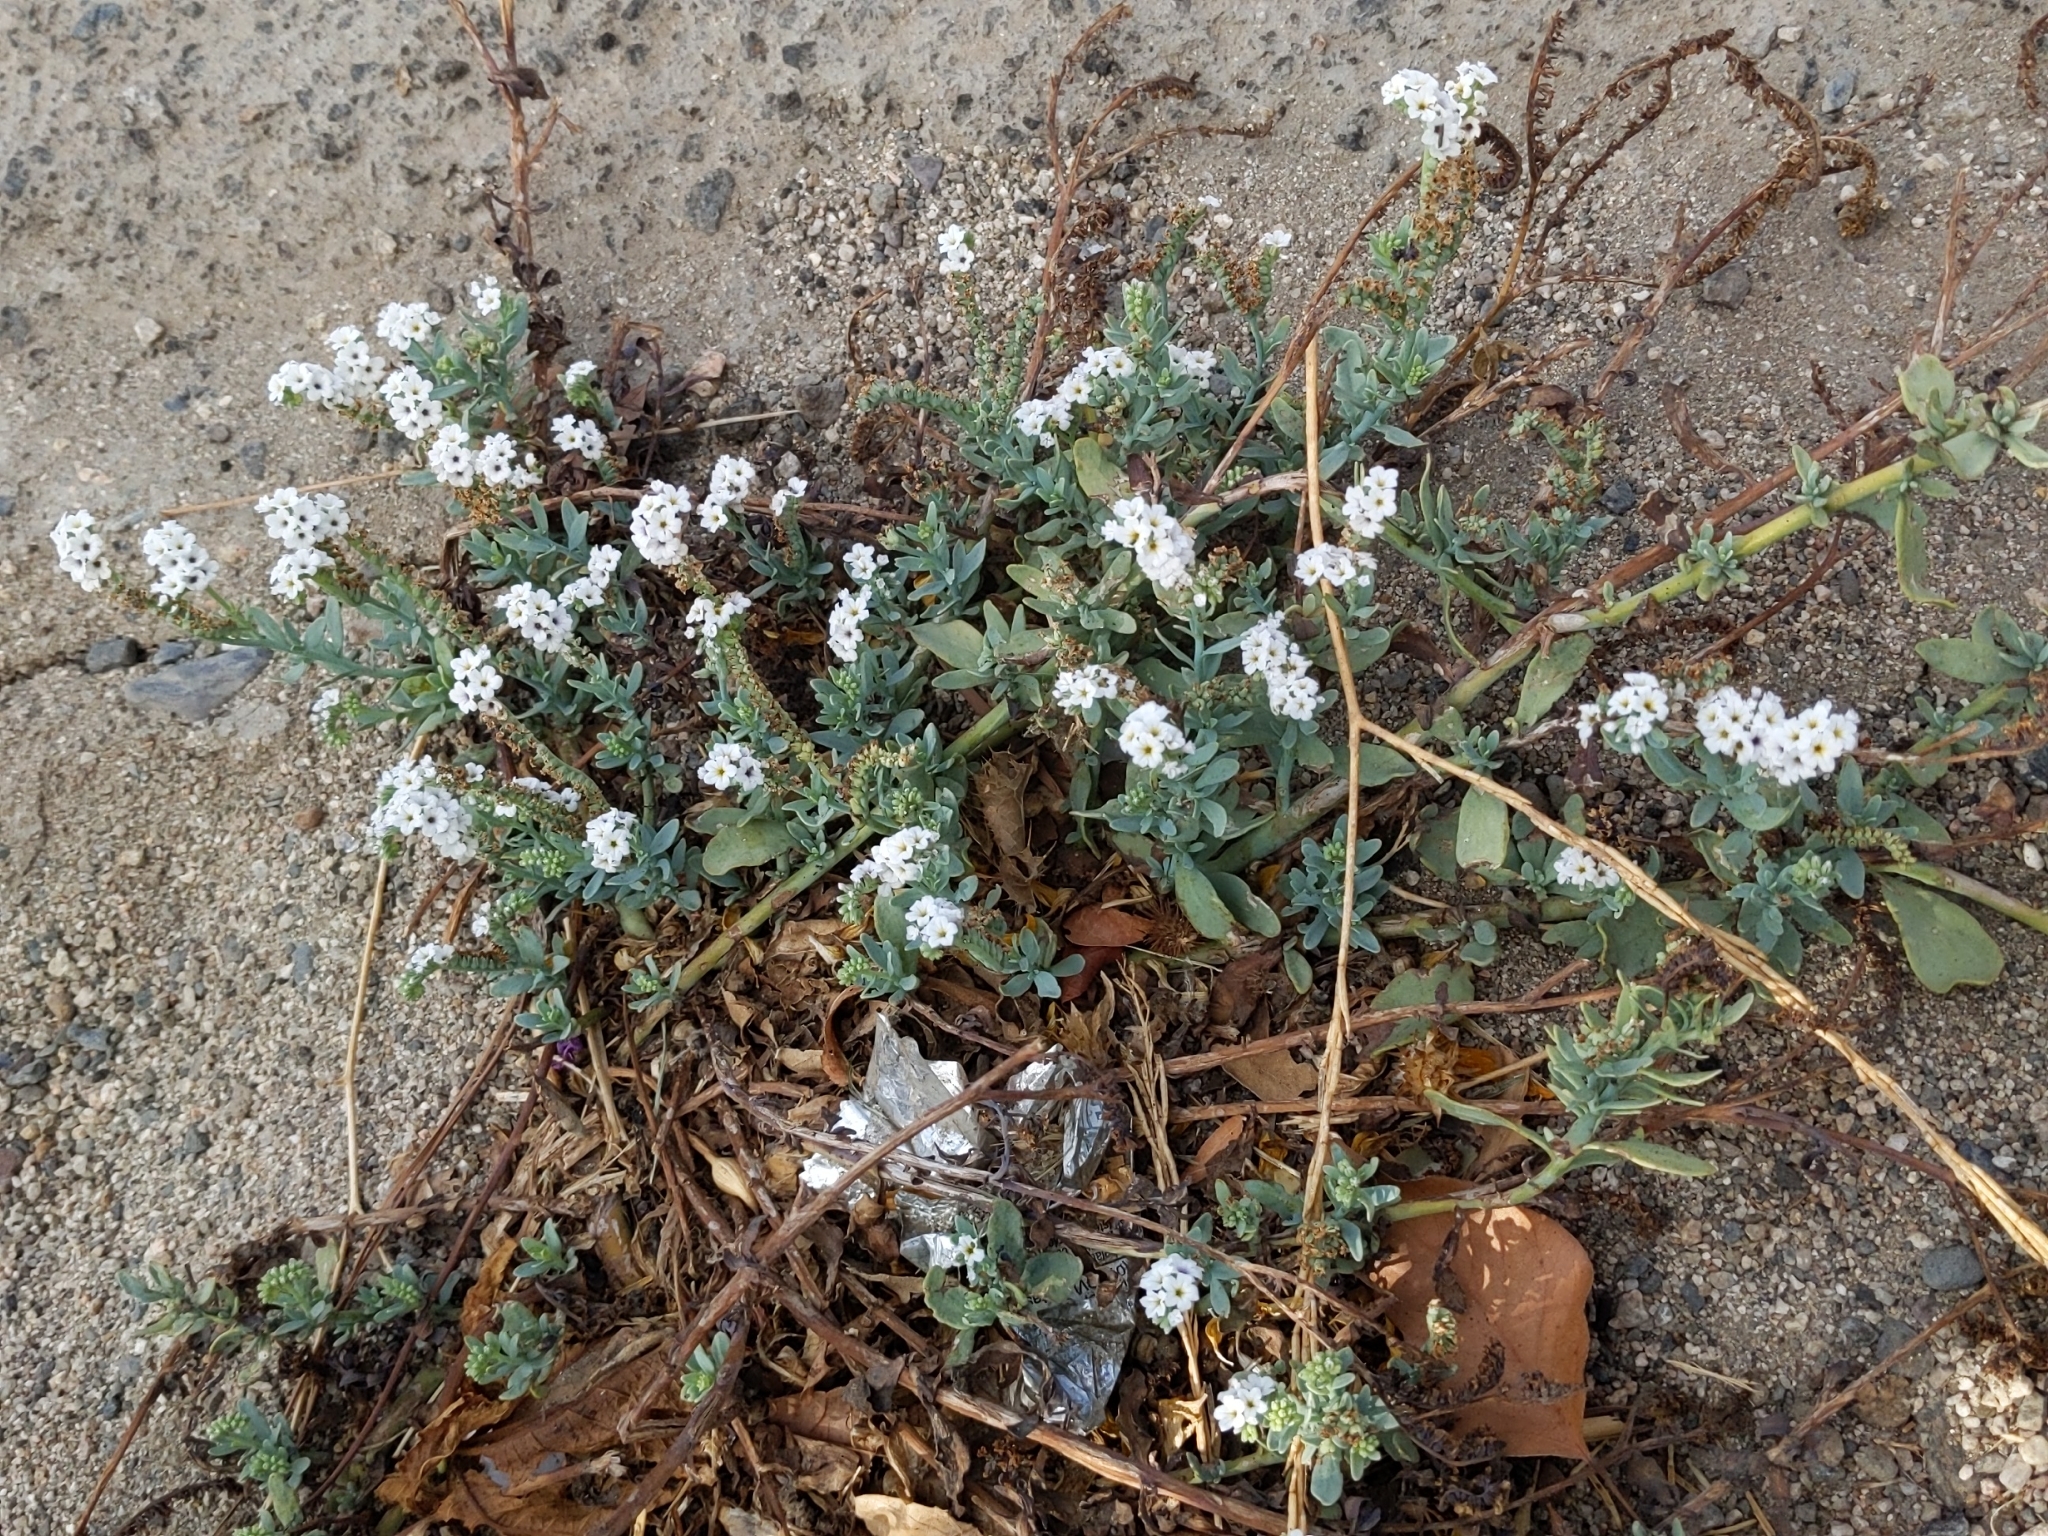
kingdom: Plantae
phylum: Tracheophyta
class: Magnoliopsida
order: Boraginales
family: Heliotropiaceae
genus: Heliotropium
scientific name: Heliotropium curassavicum
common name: Seaside heliotrope
